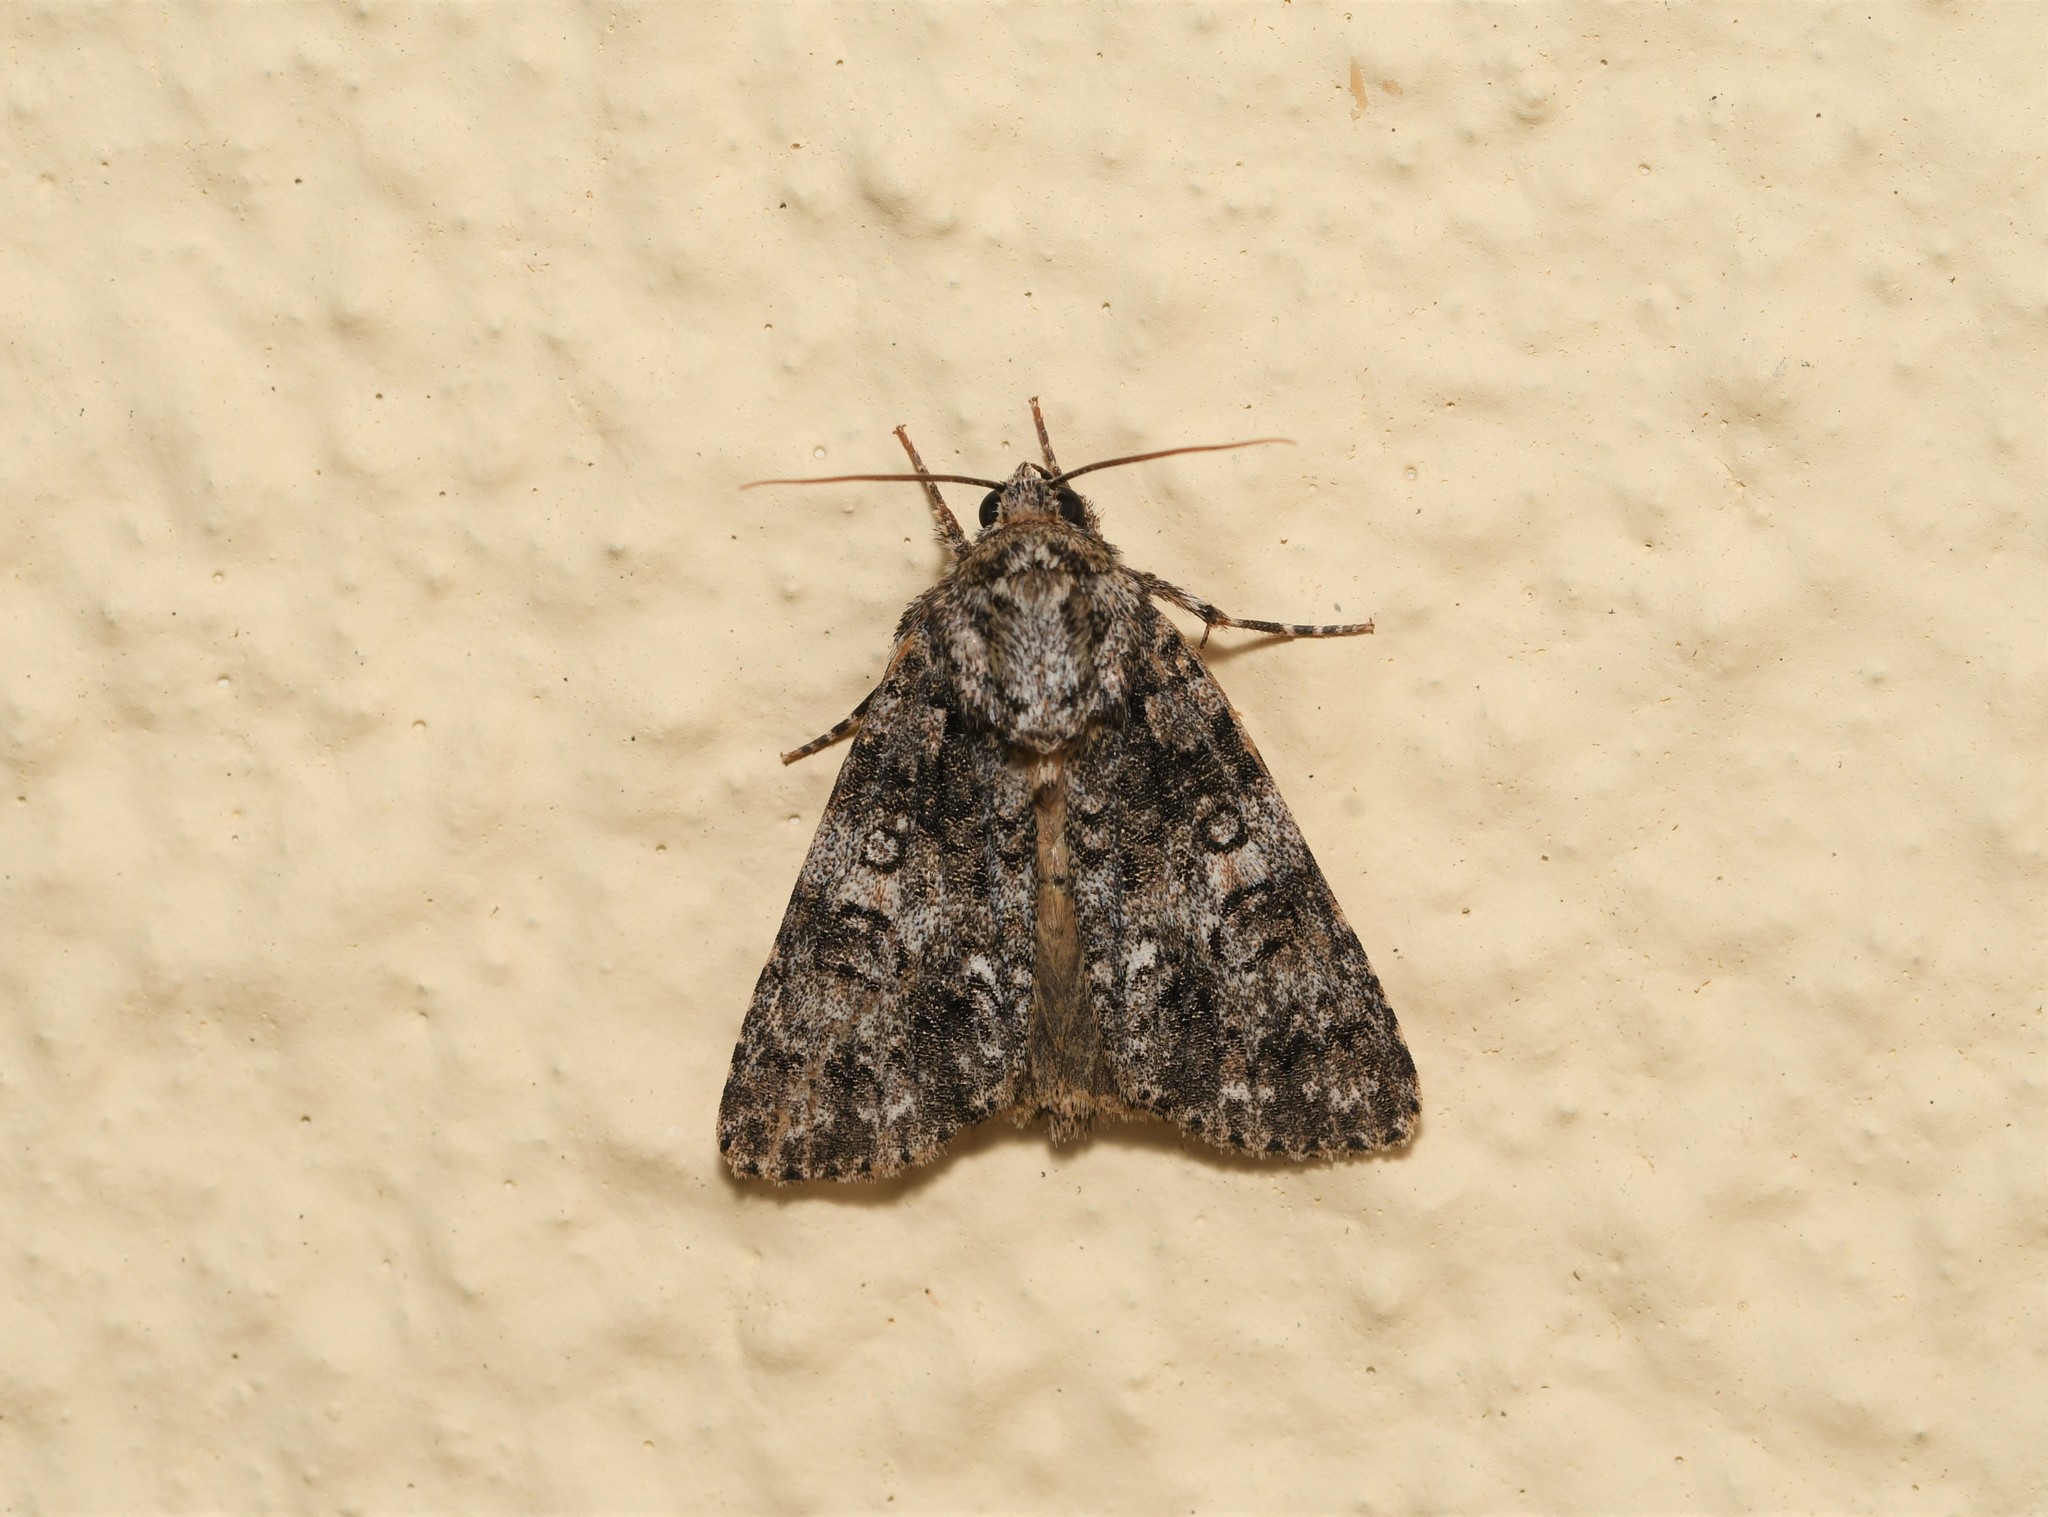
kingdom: Animalia
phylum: Arthropoda
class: Insecta
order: Lepidoptera
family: Noctuidae
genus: Acronicta
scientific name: Acronicta rumicis
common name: Knot grass
